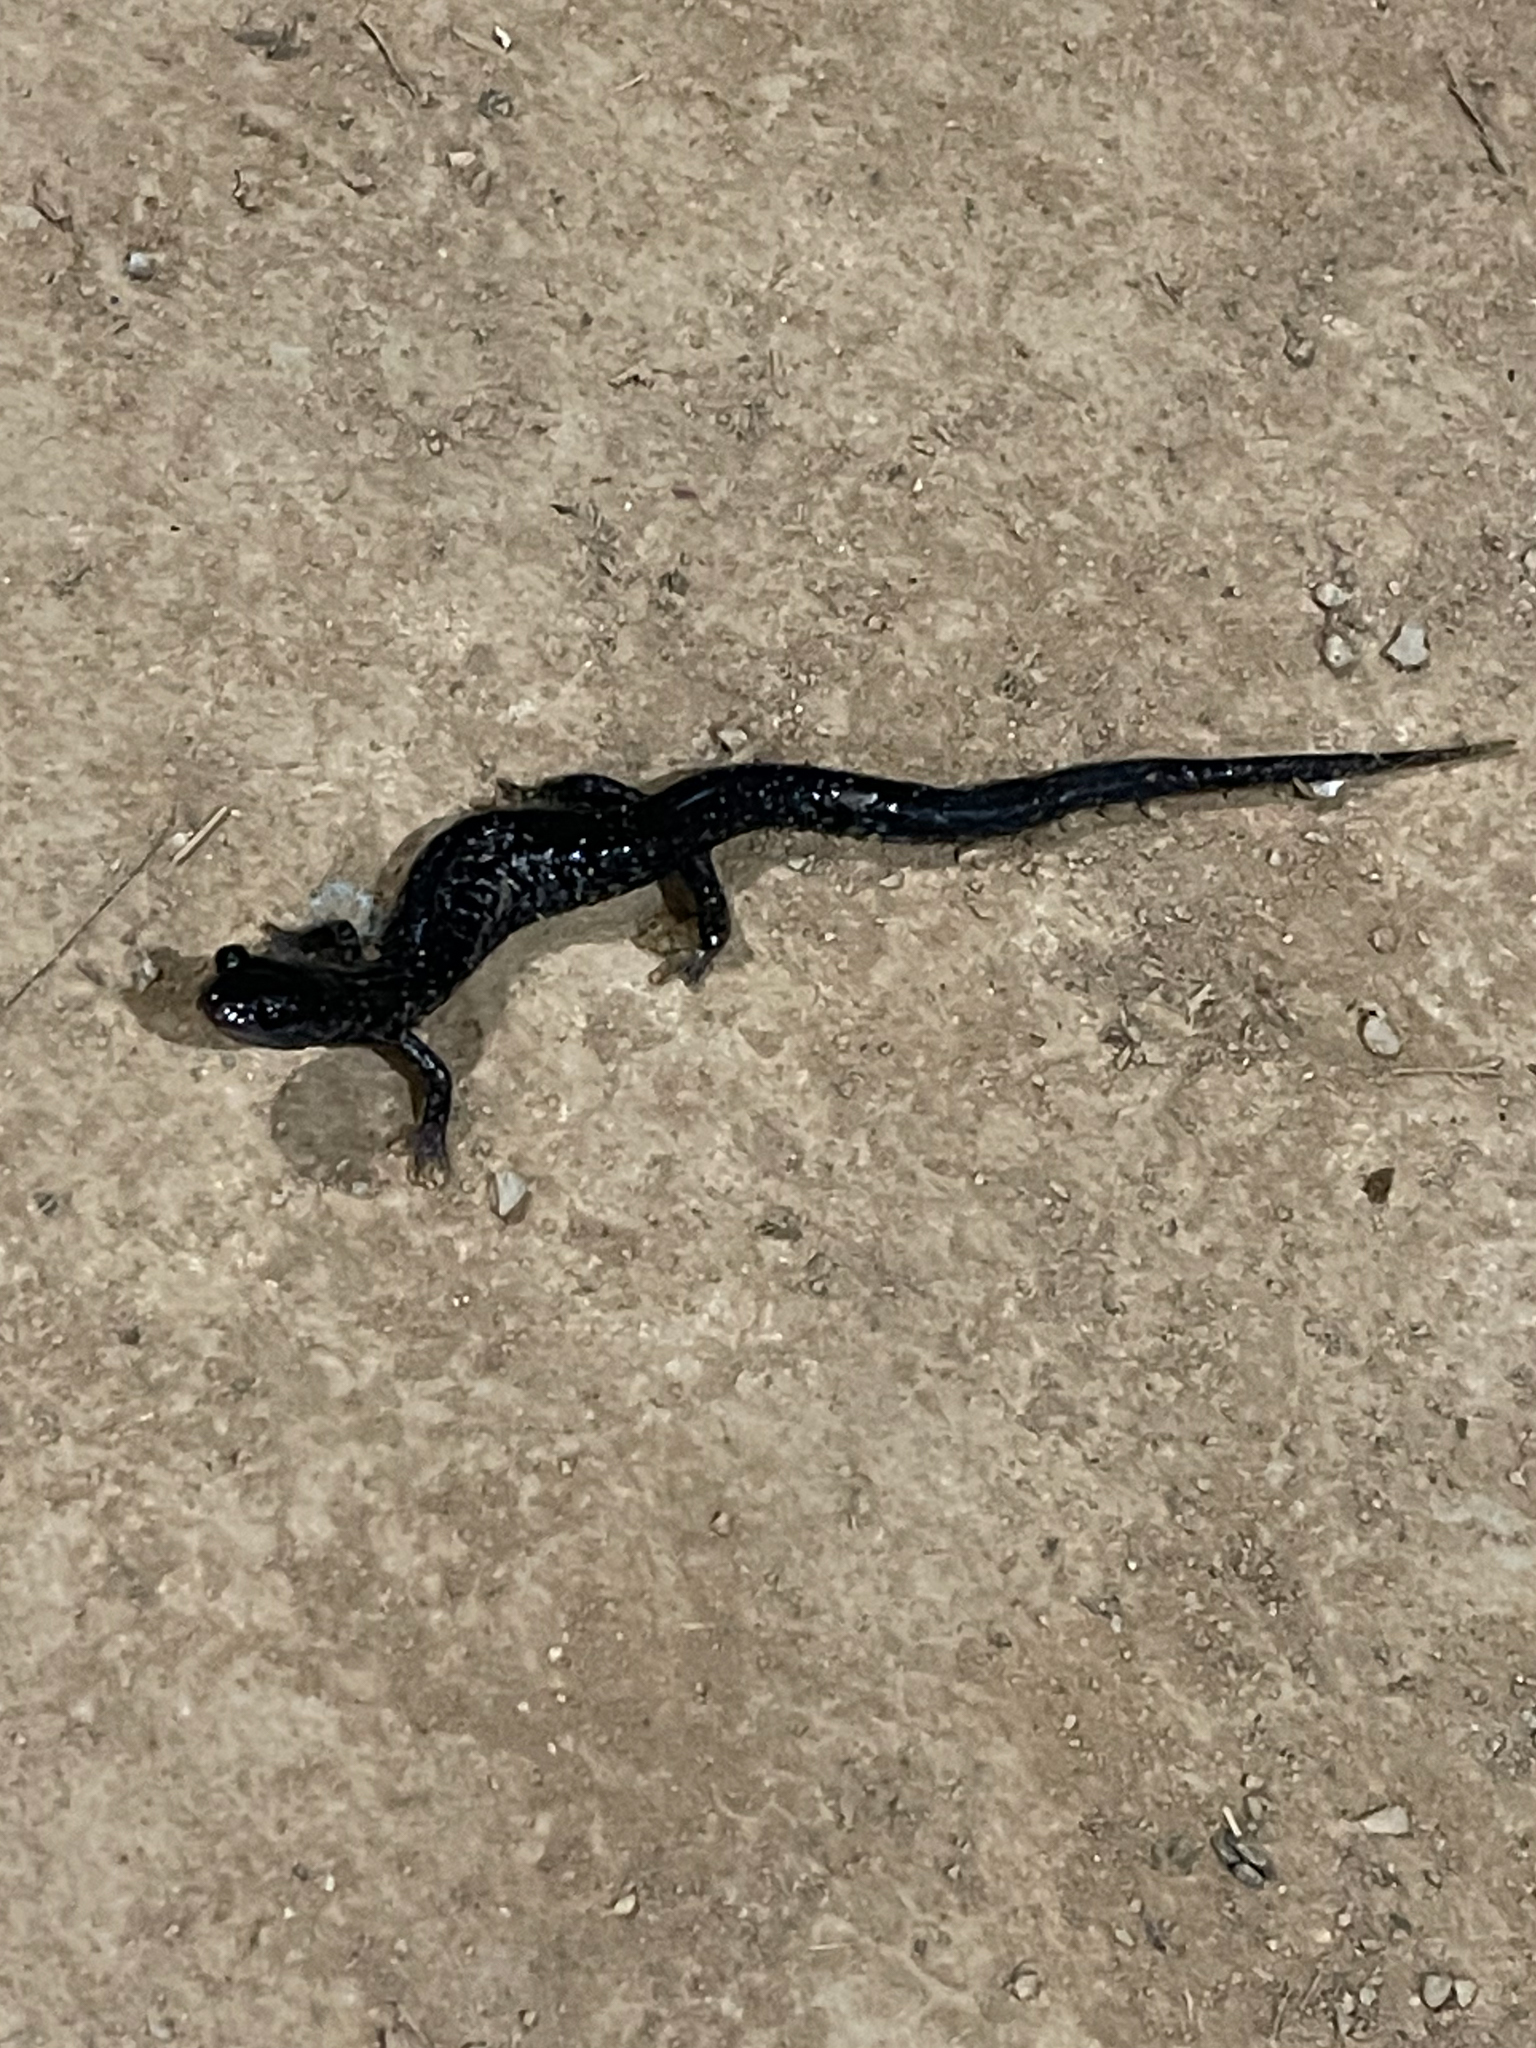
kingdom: Animalia
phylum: Chordata
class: Amphibia
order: Caudata
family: Plethodontidae
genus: Plethodon
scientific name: Plethodon glutinosus
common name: Northern slimy salamander
